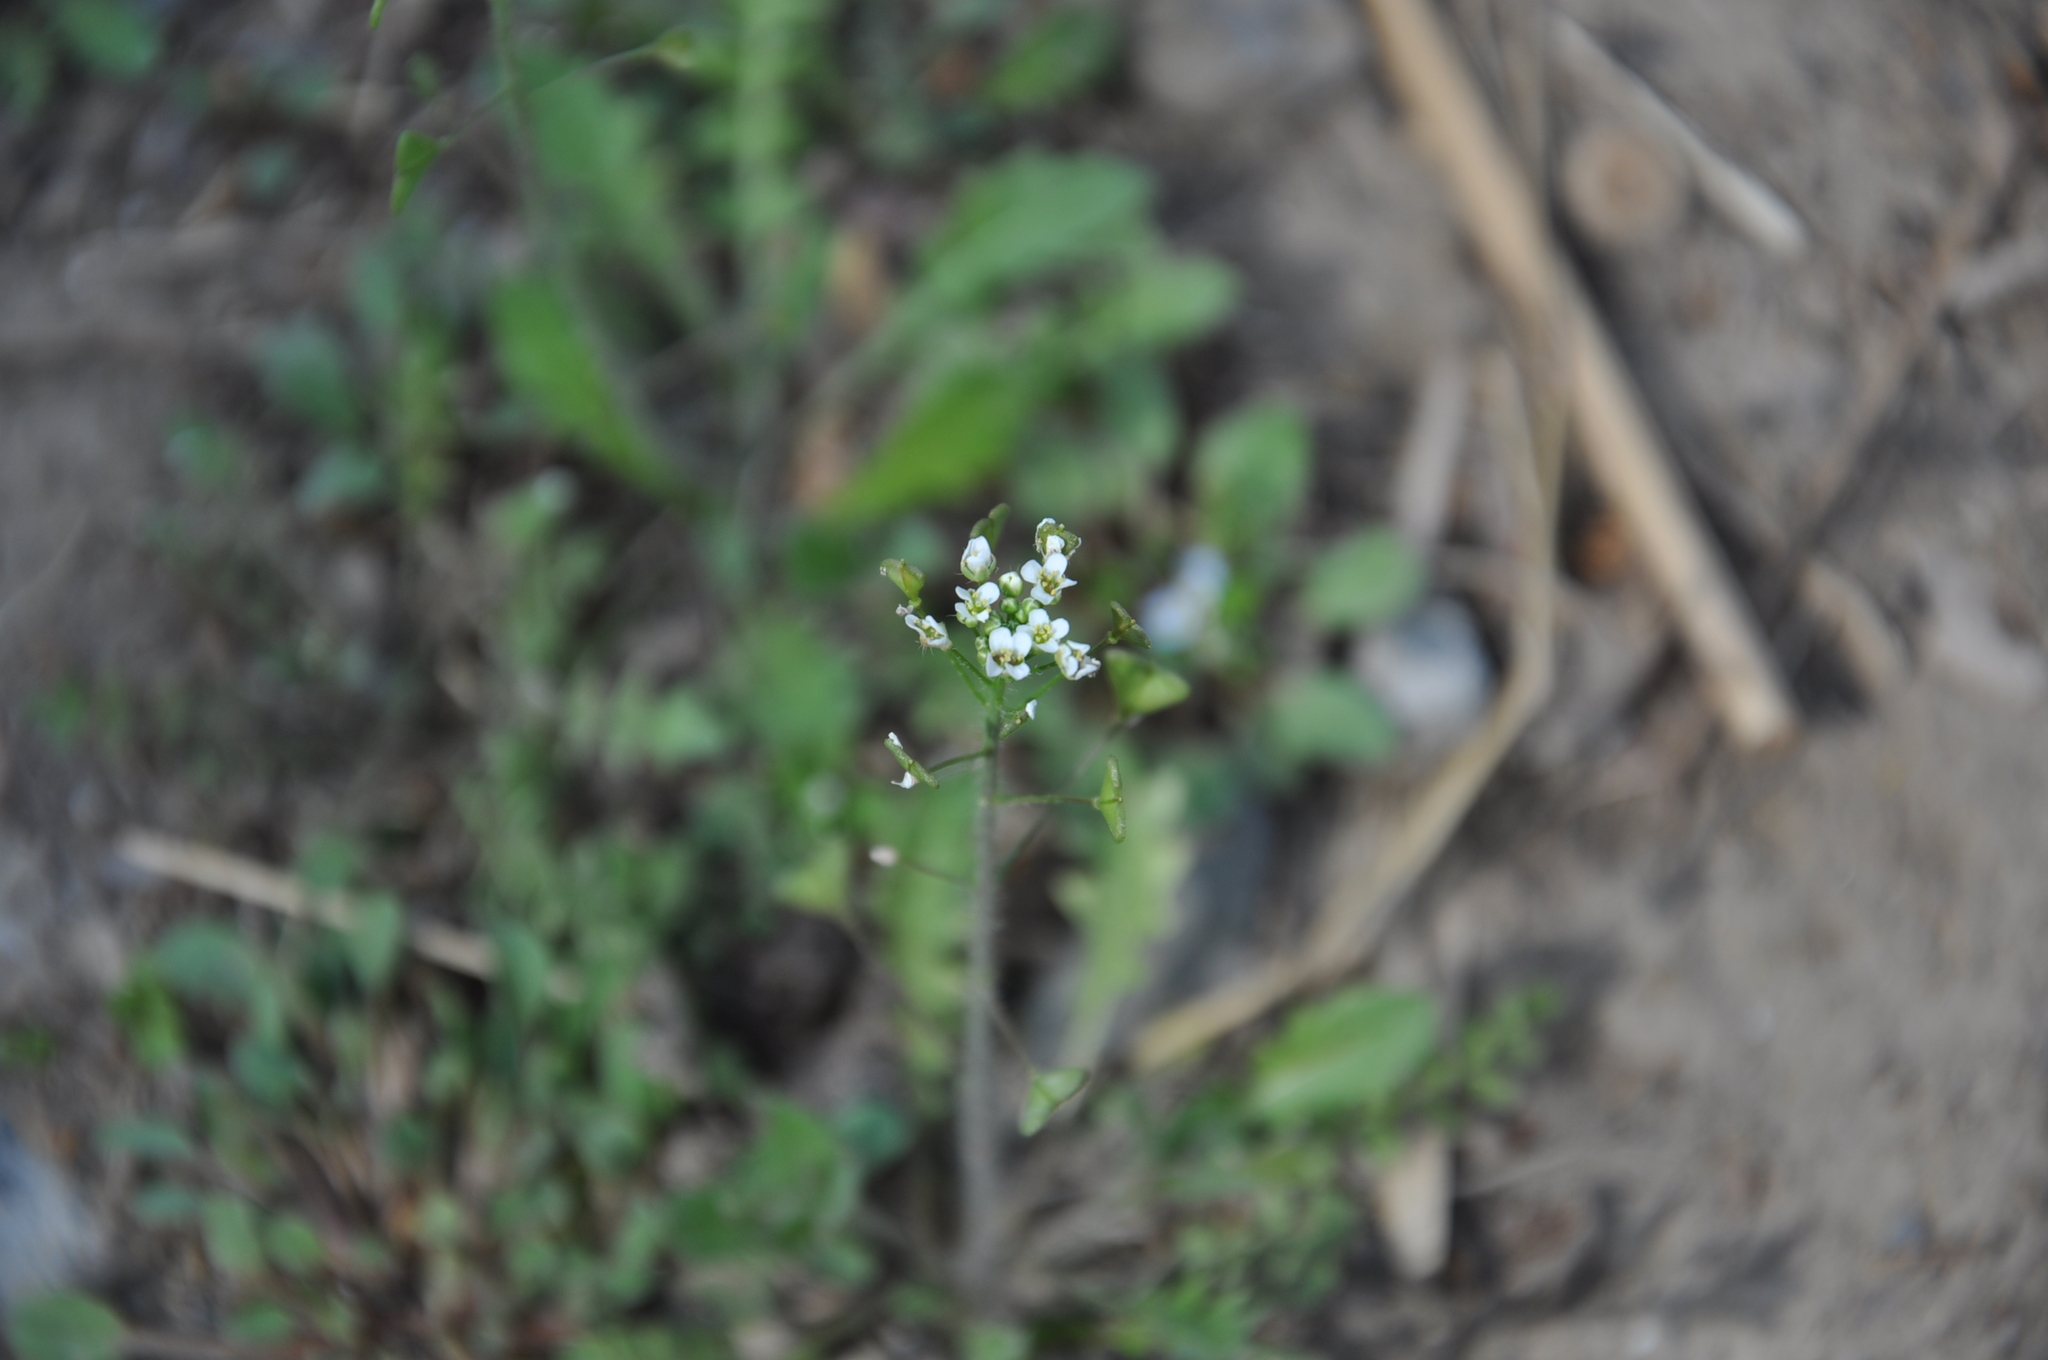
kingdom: Plantae
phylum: Tracheophyta
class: Magnoliopsida
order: Brassicales
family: Brassicaceae
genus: Capsella
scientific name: Capsella bursa-pastoris
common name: Shepherd's purse
